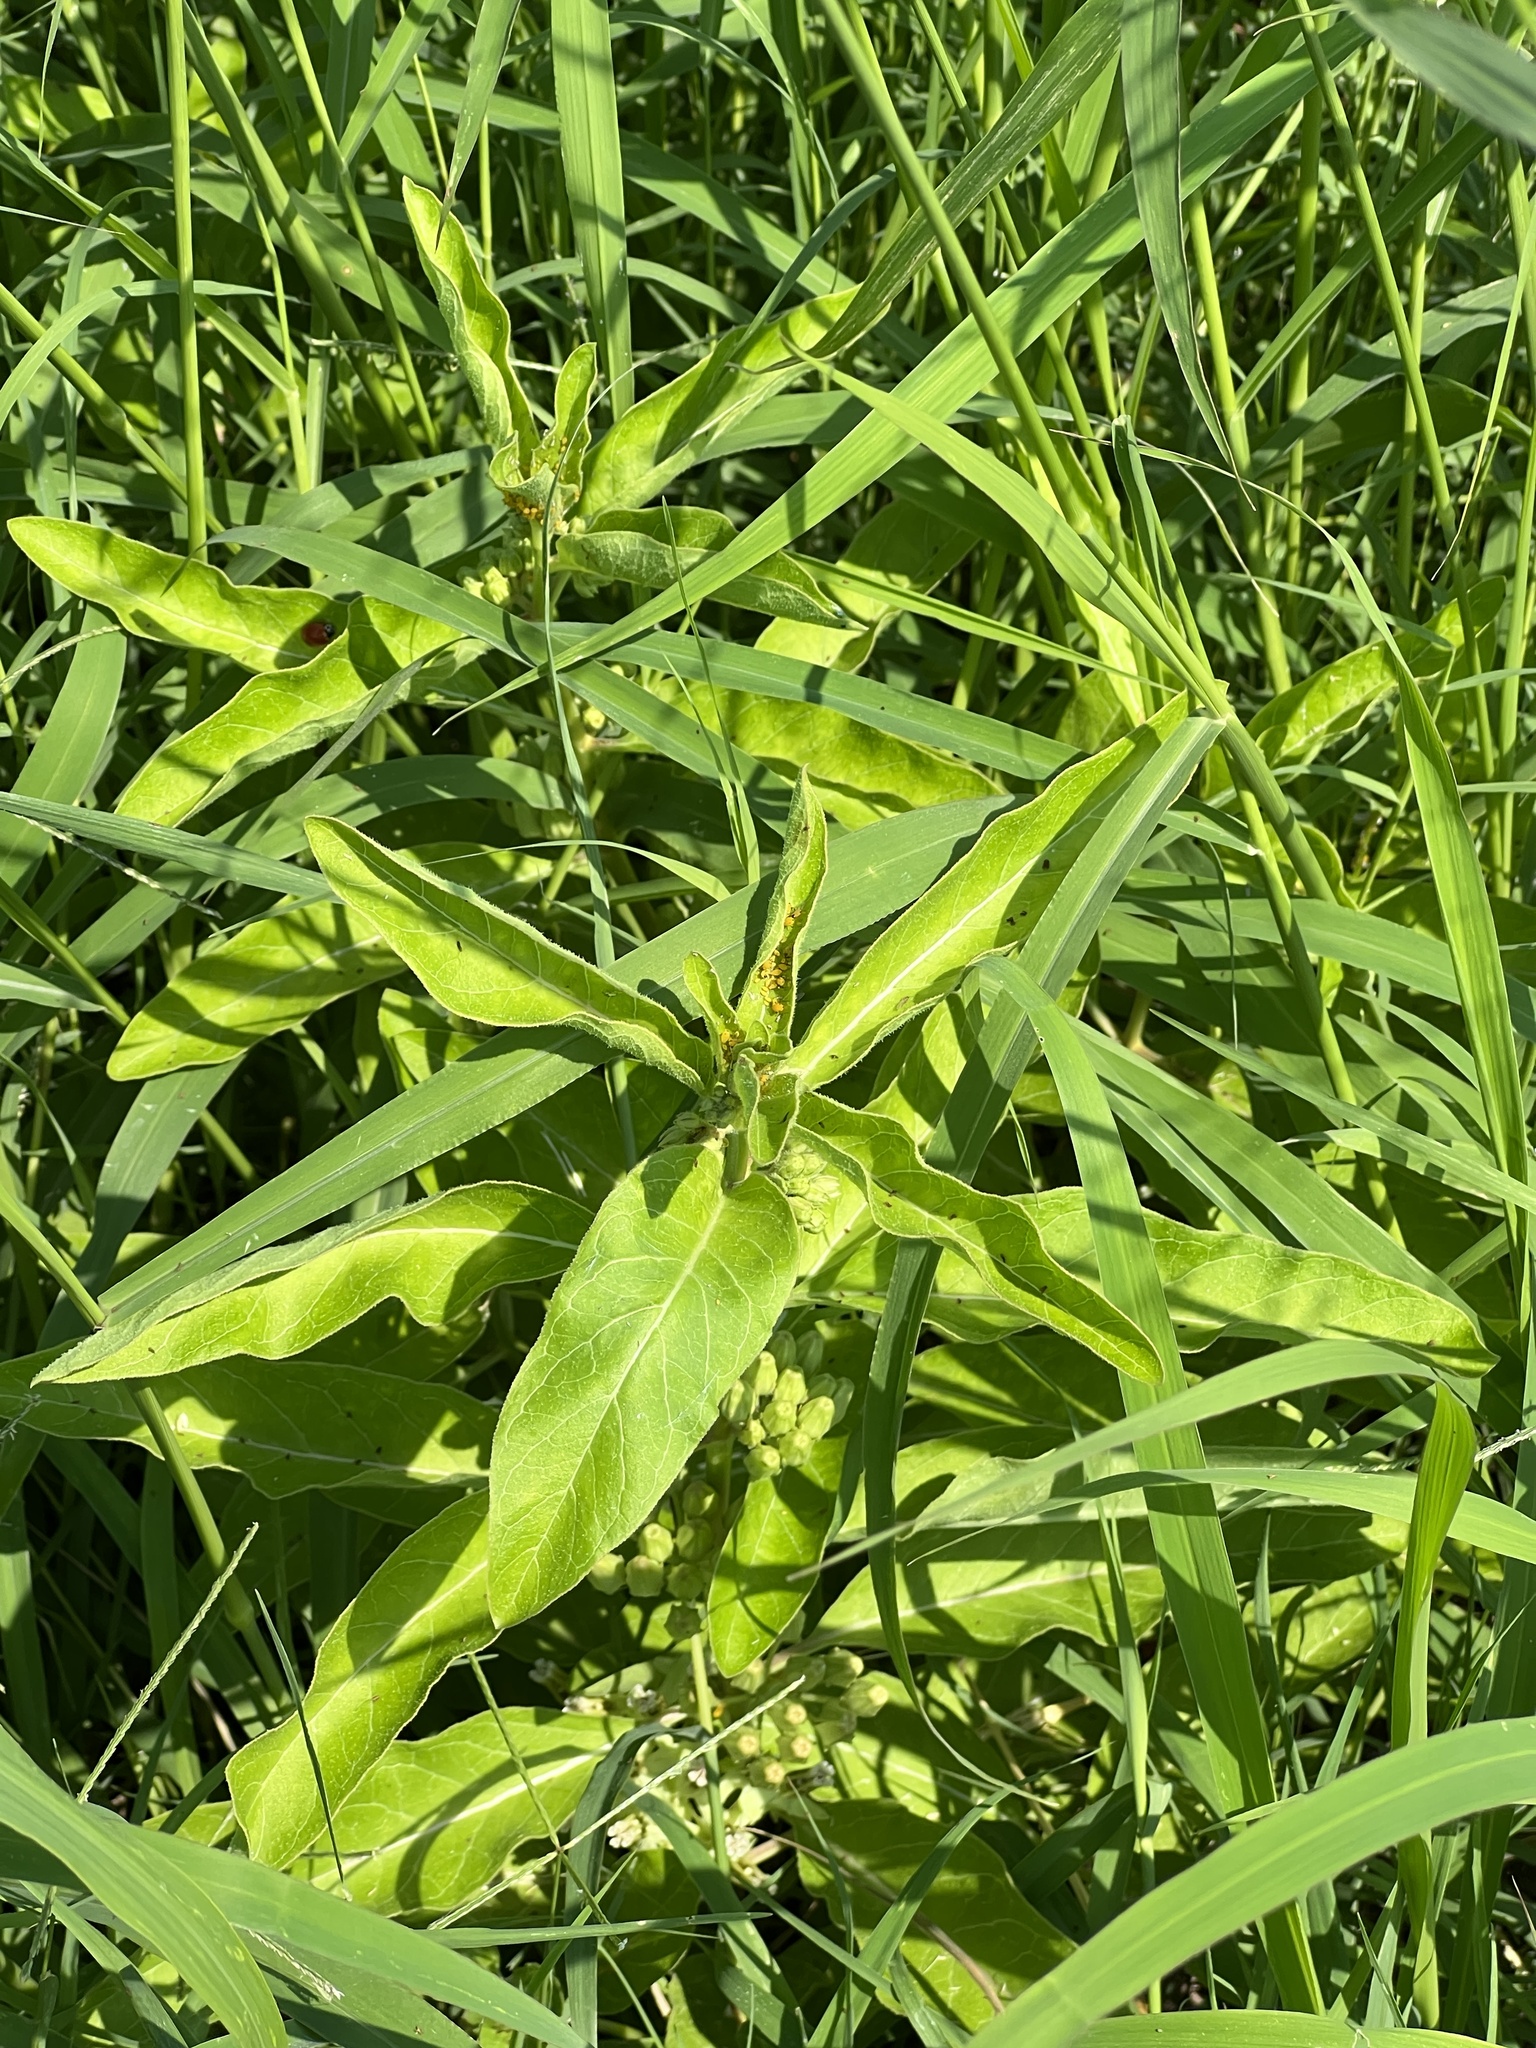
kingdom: Plantae
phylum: Tracheophyta
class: Magnoliopsida
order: Gentianales
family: Apocynaceae
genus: Asclepias
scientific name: Asclepias oenotheroides
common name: Zizotes milkweed
